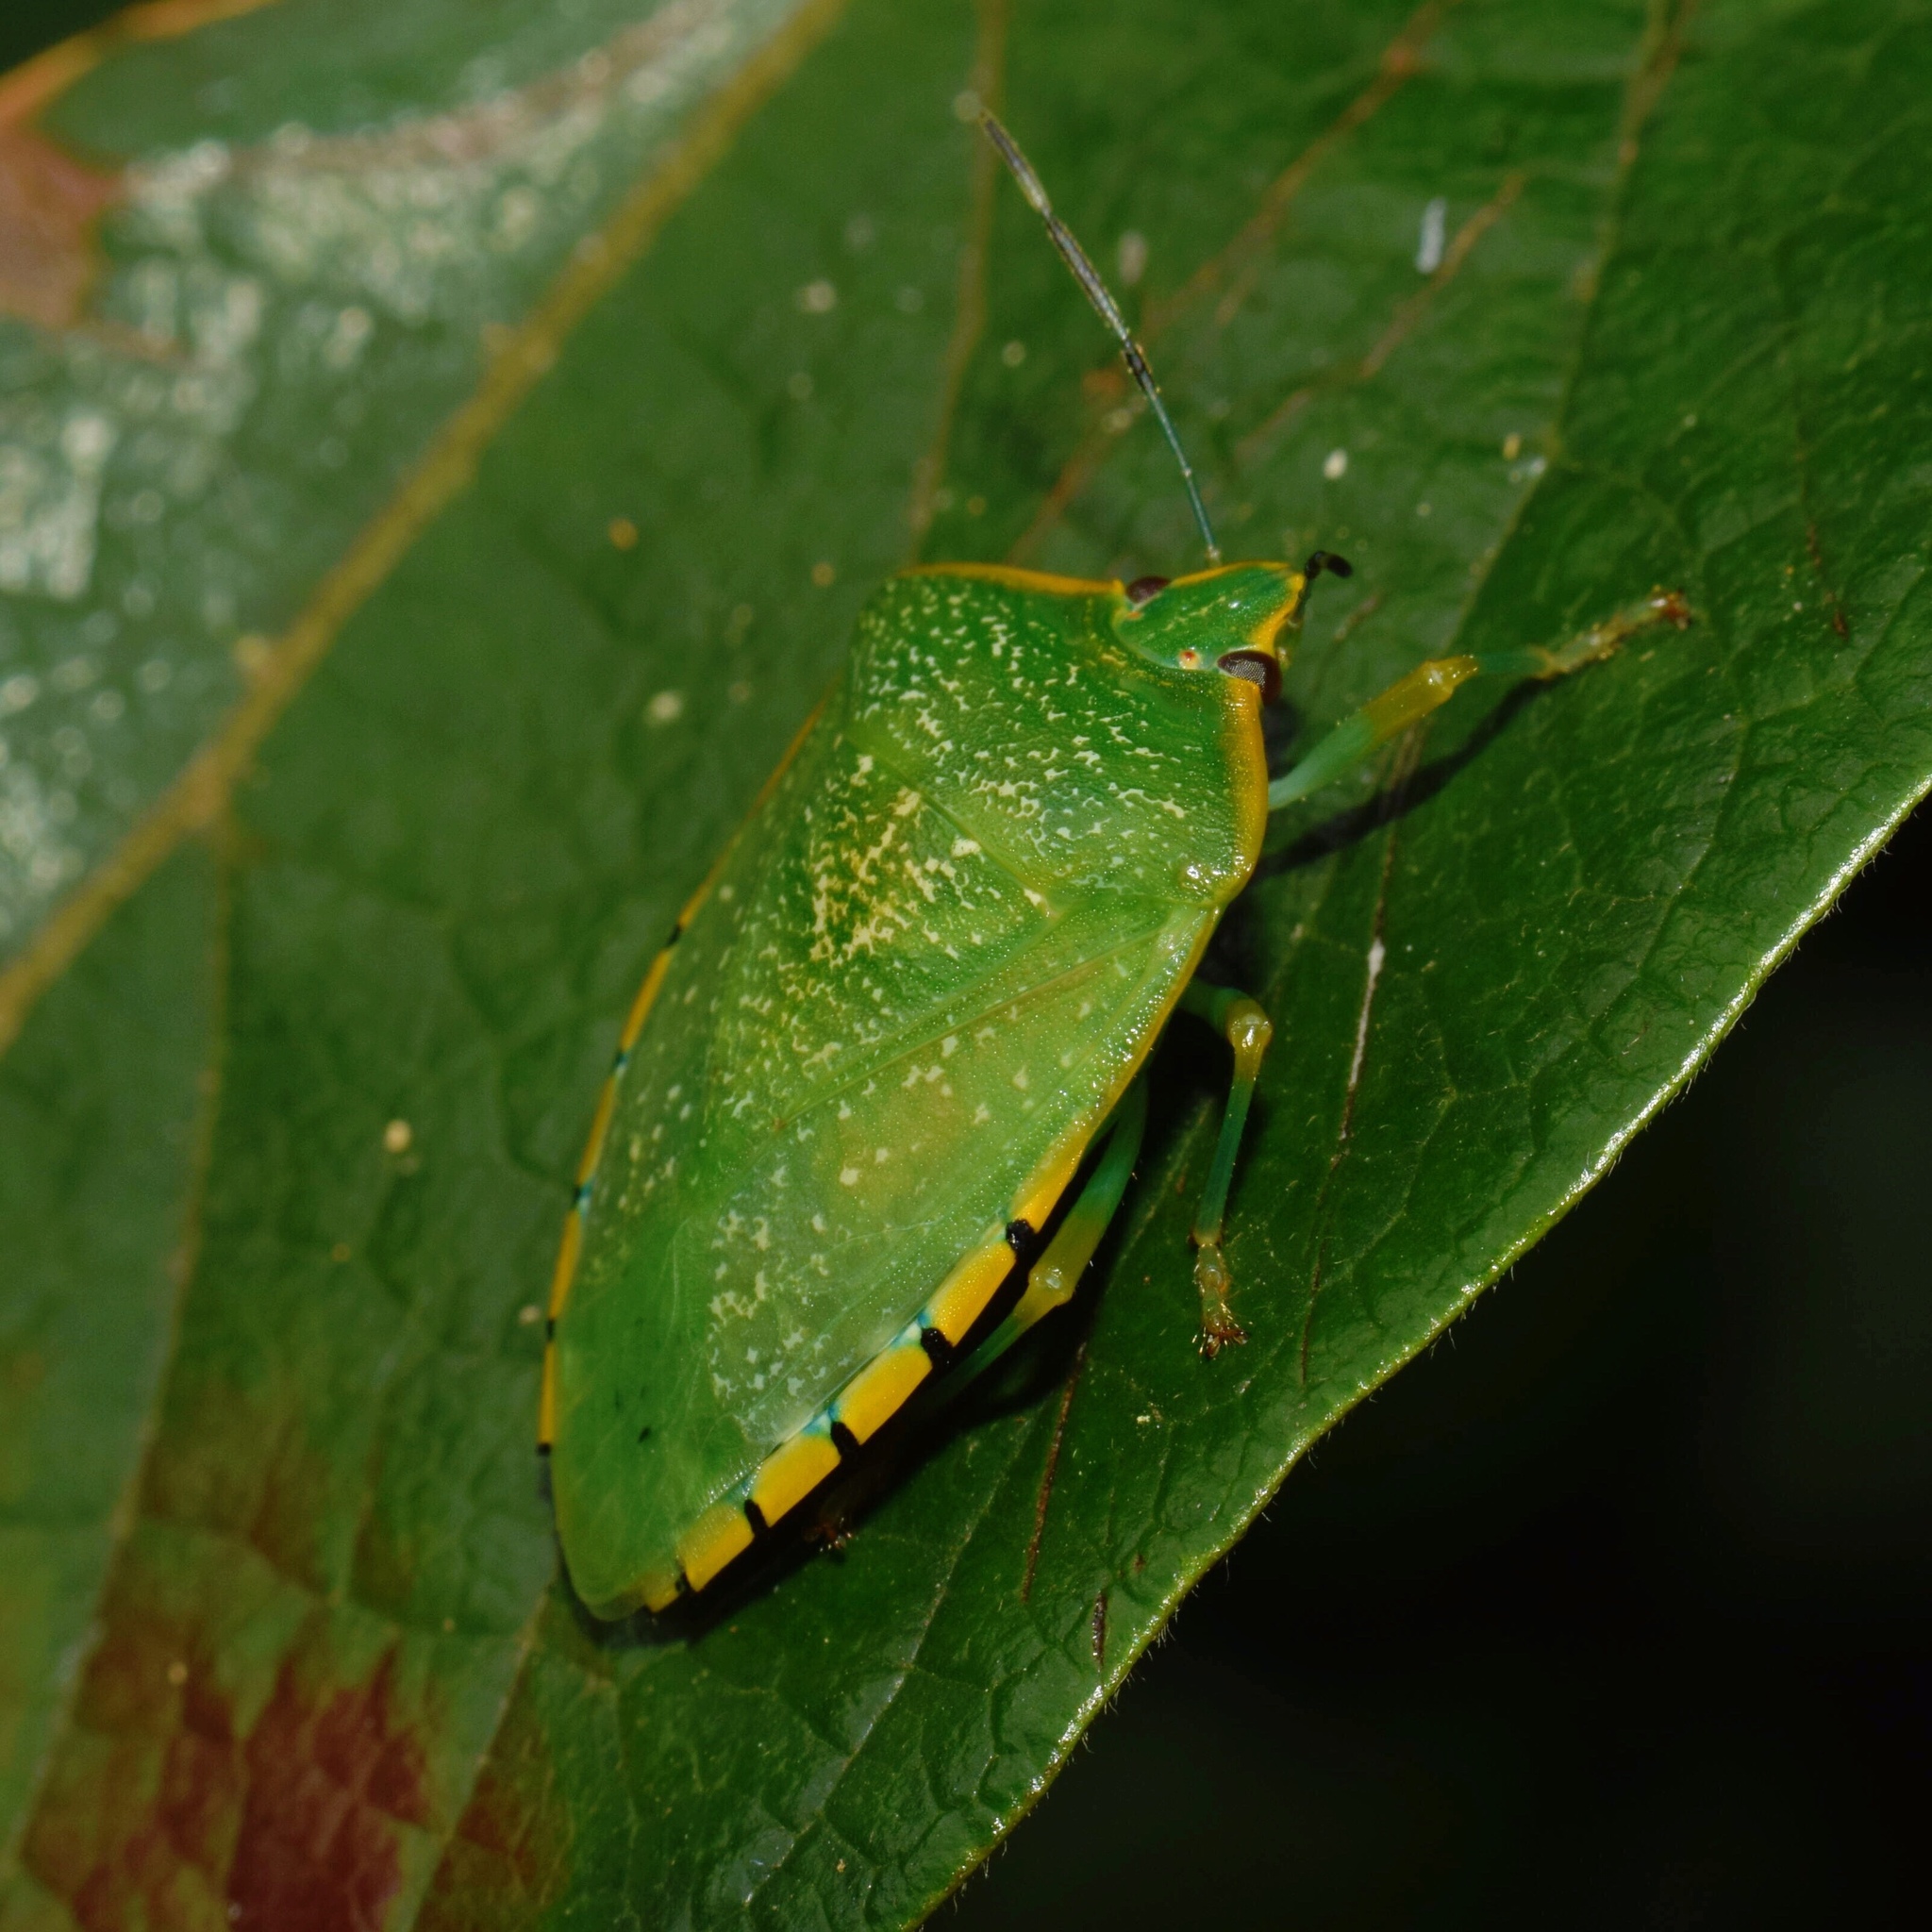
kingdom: Animalia
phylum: Arthropoda
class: Insecta
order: Hemiptera
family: Pentatomidae
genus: Chinavia
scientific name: Chinavia
